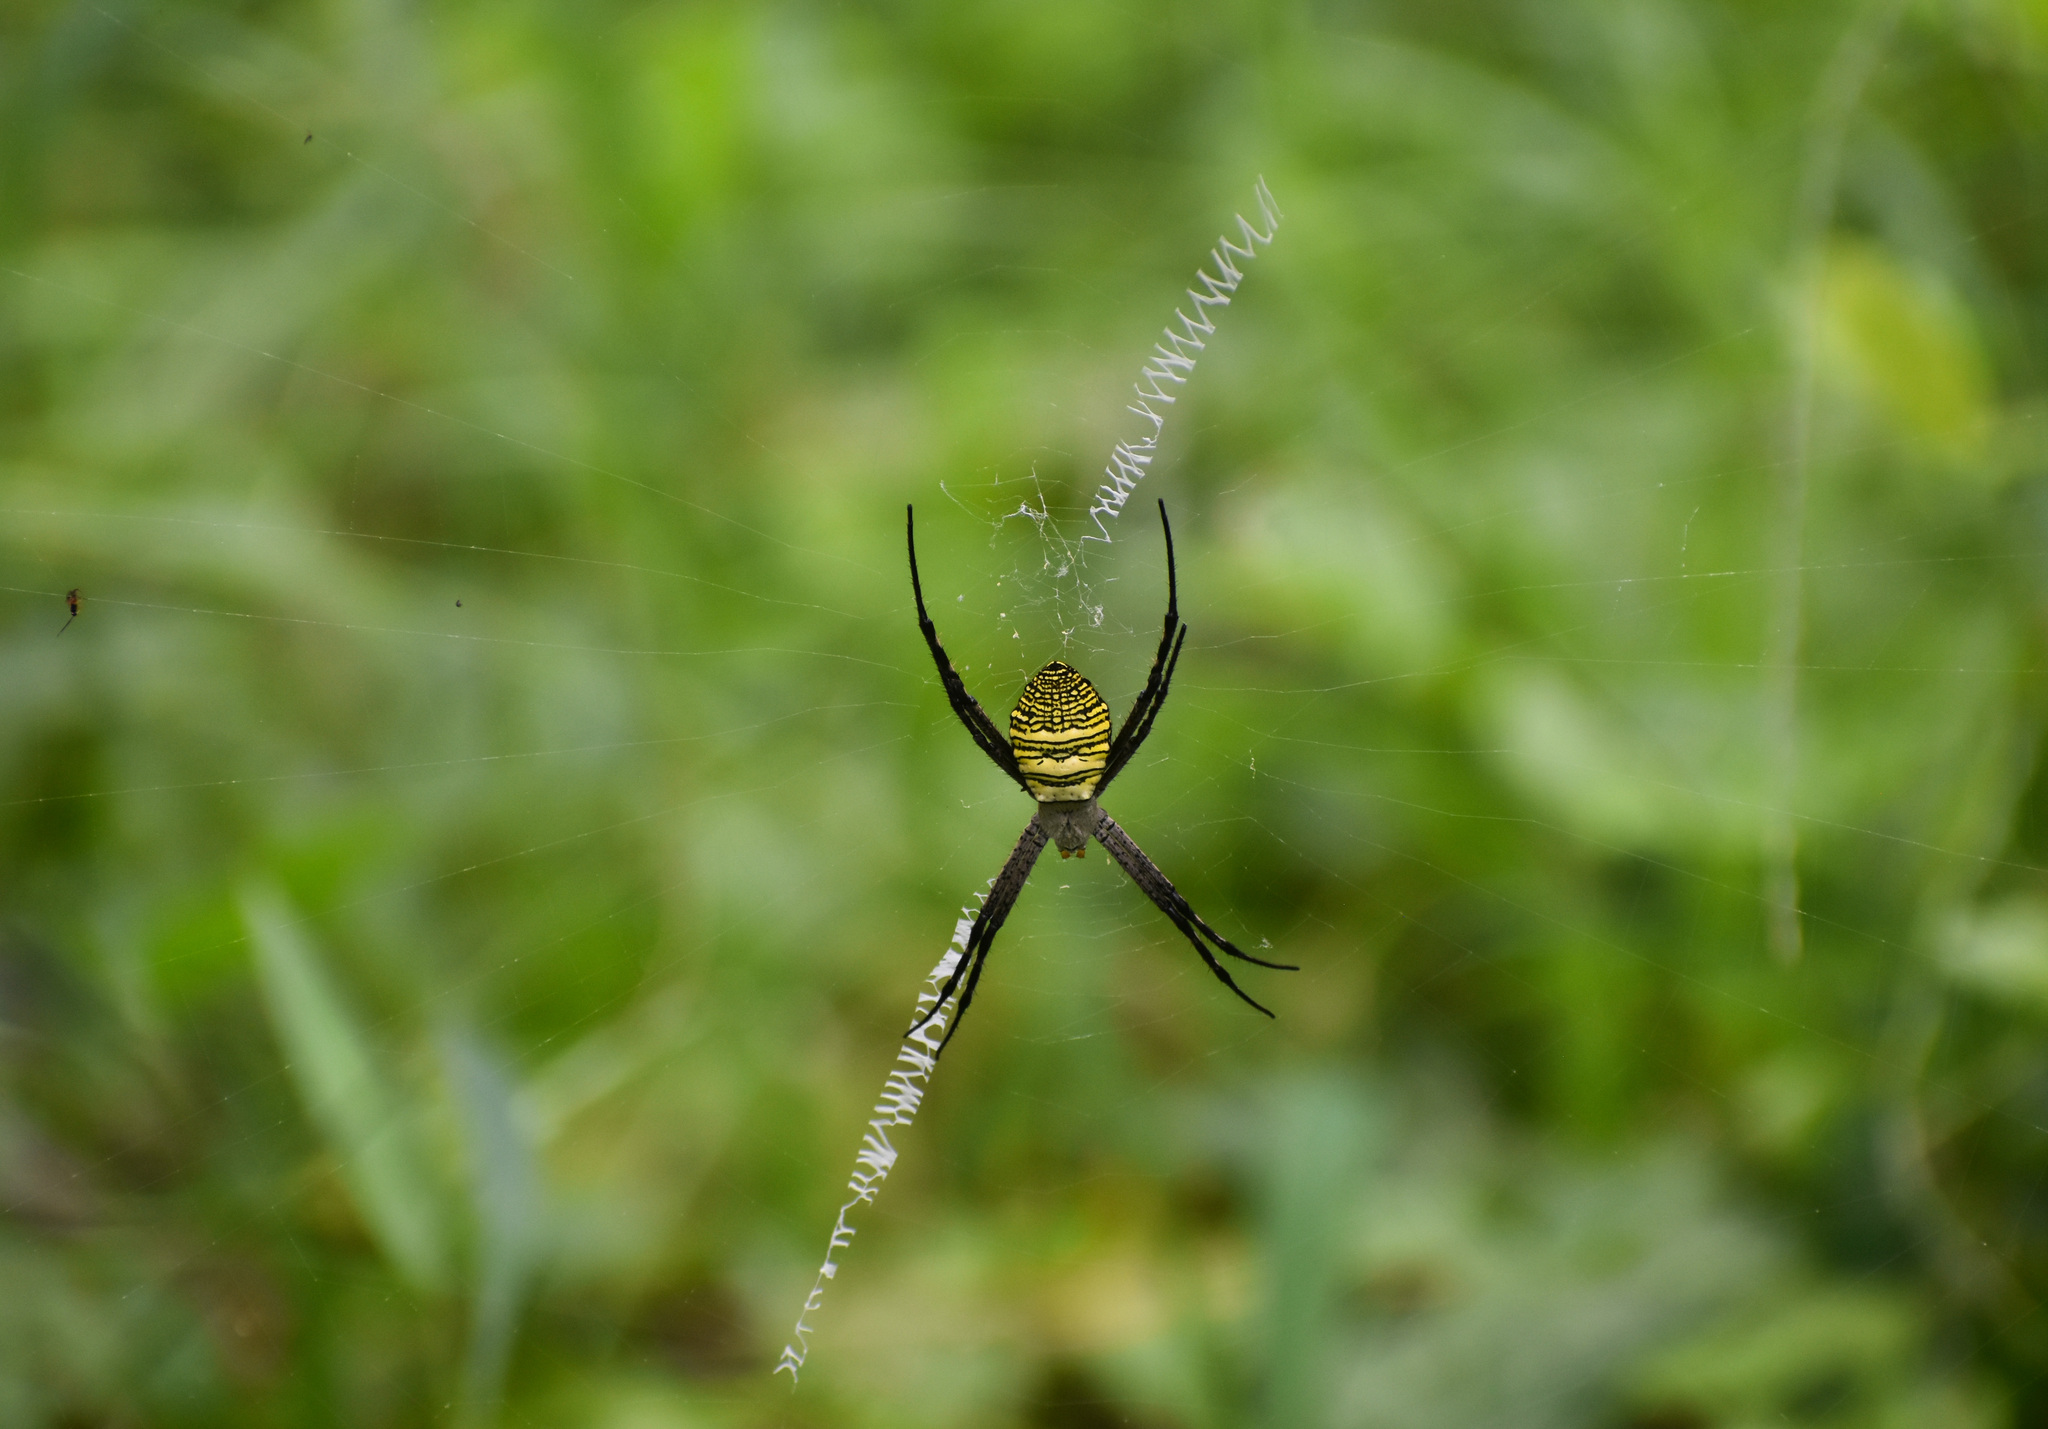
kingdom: Animalia
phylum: Arthropoda
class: Arachnida
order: Araneae
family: Araneidae
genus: Argiope
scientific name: Argiope aemula
